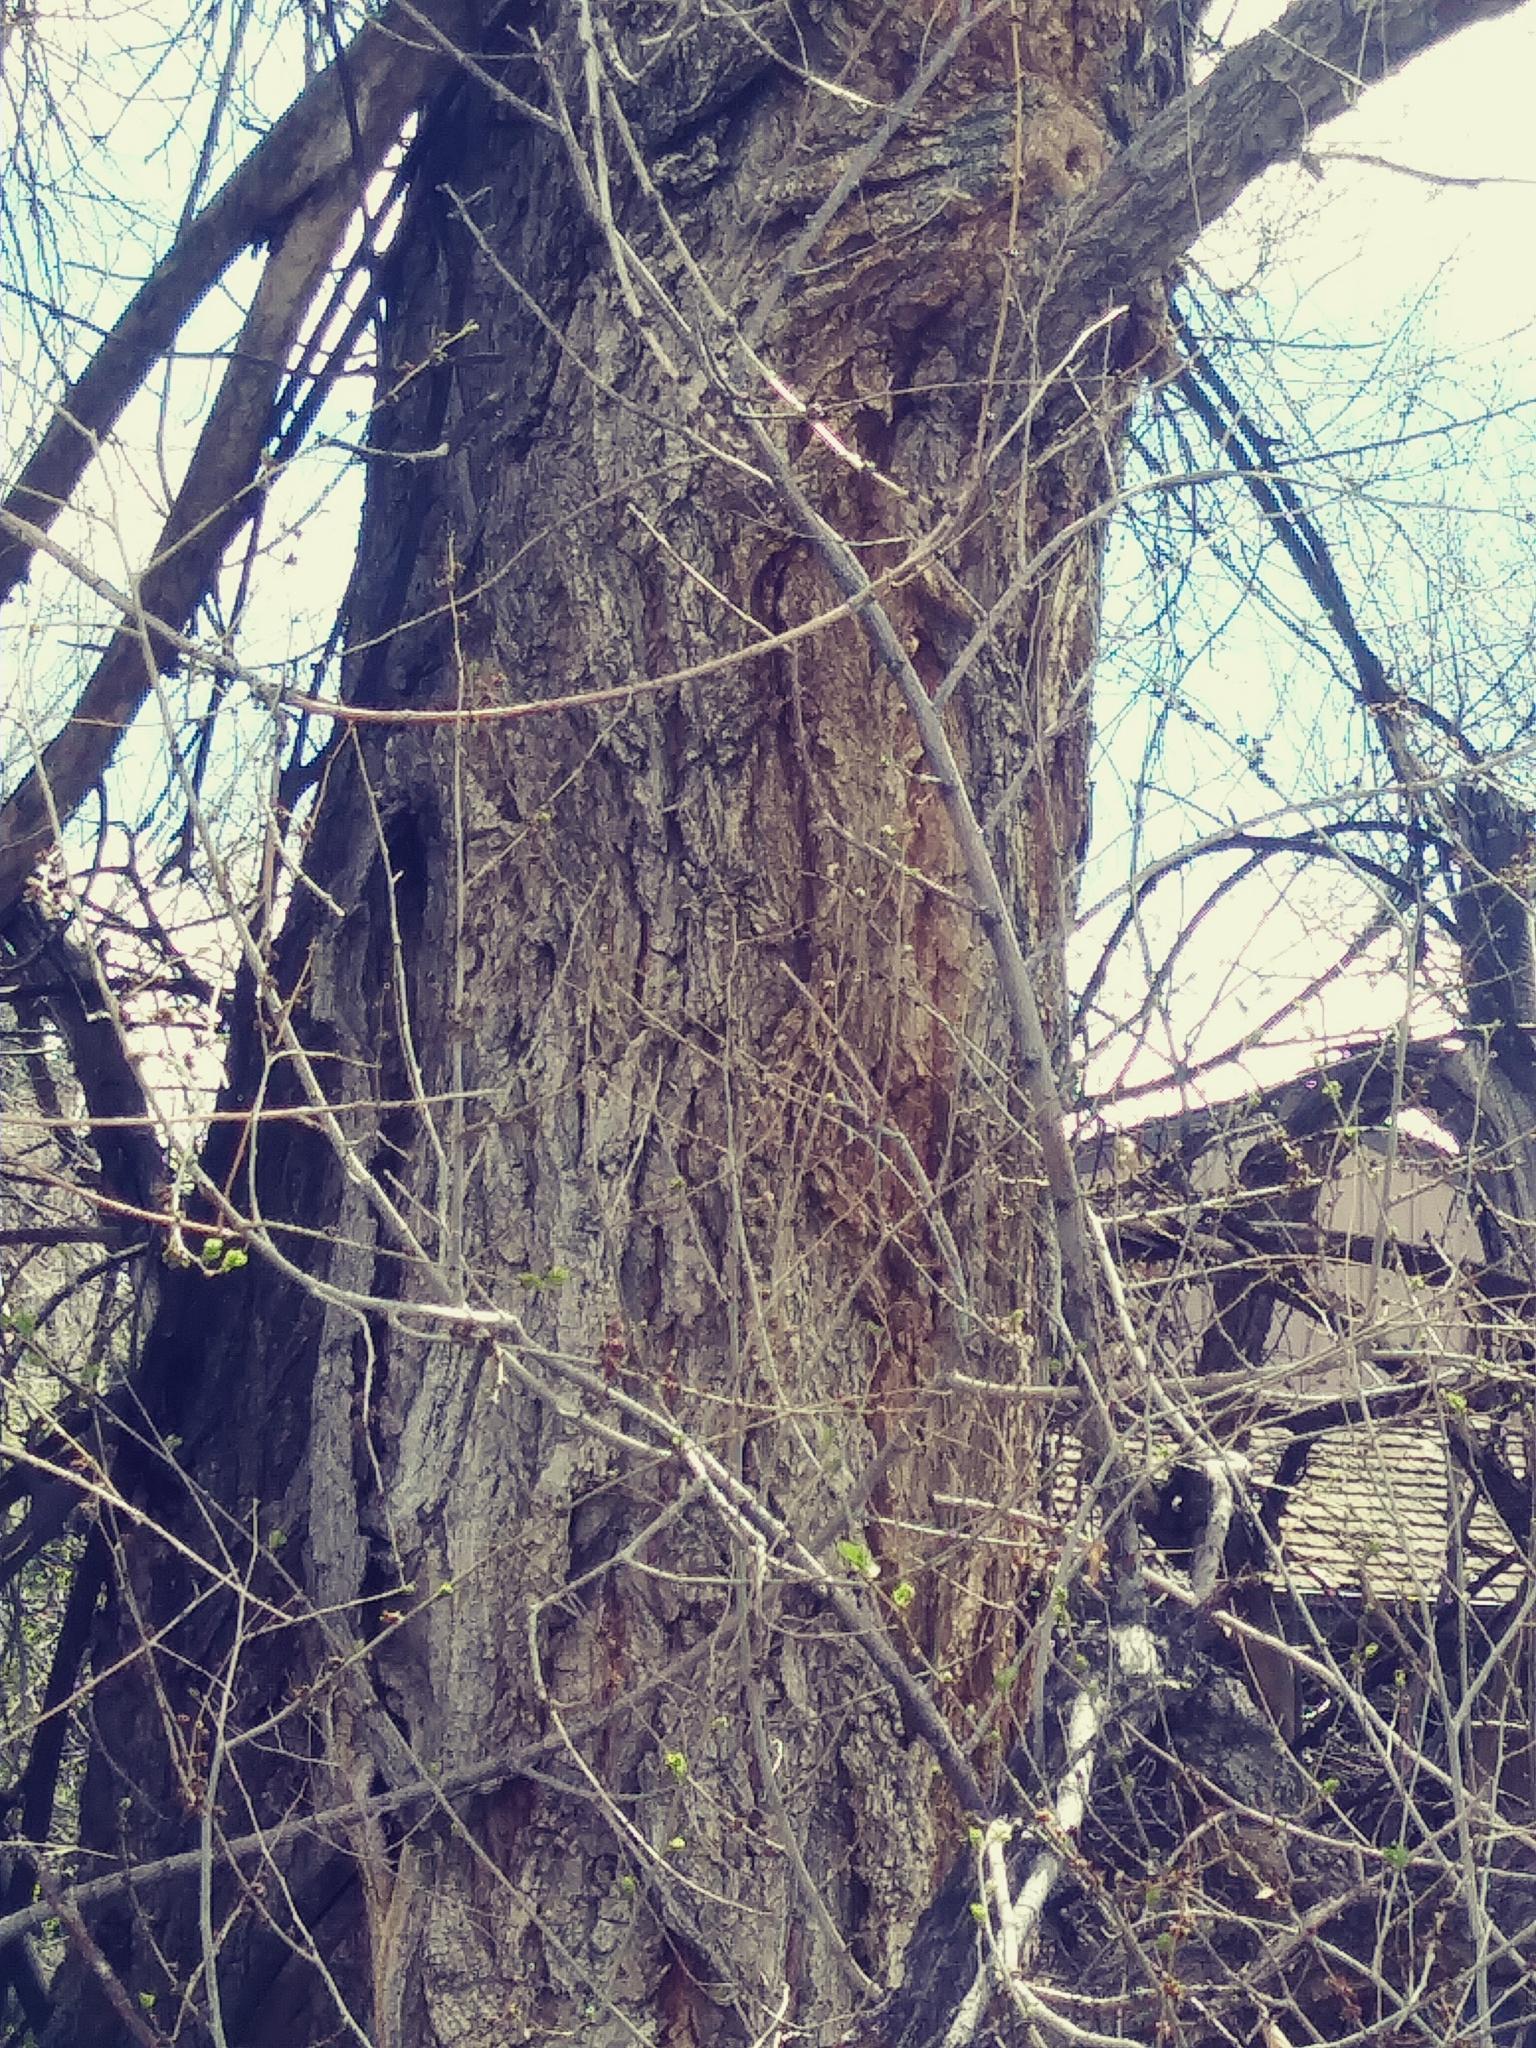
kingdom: Plantae
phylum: Tracheophyta
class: Magnoliopsida
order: Malpighiales
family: Salicaceae
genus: Populus
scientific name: Populus deltoides
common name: Eastern cottonwood
